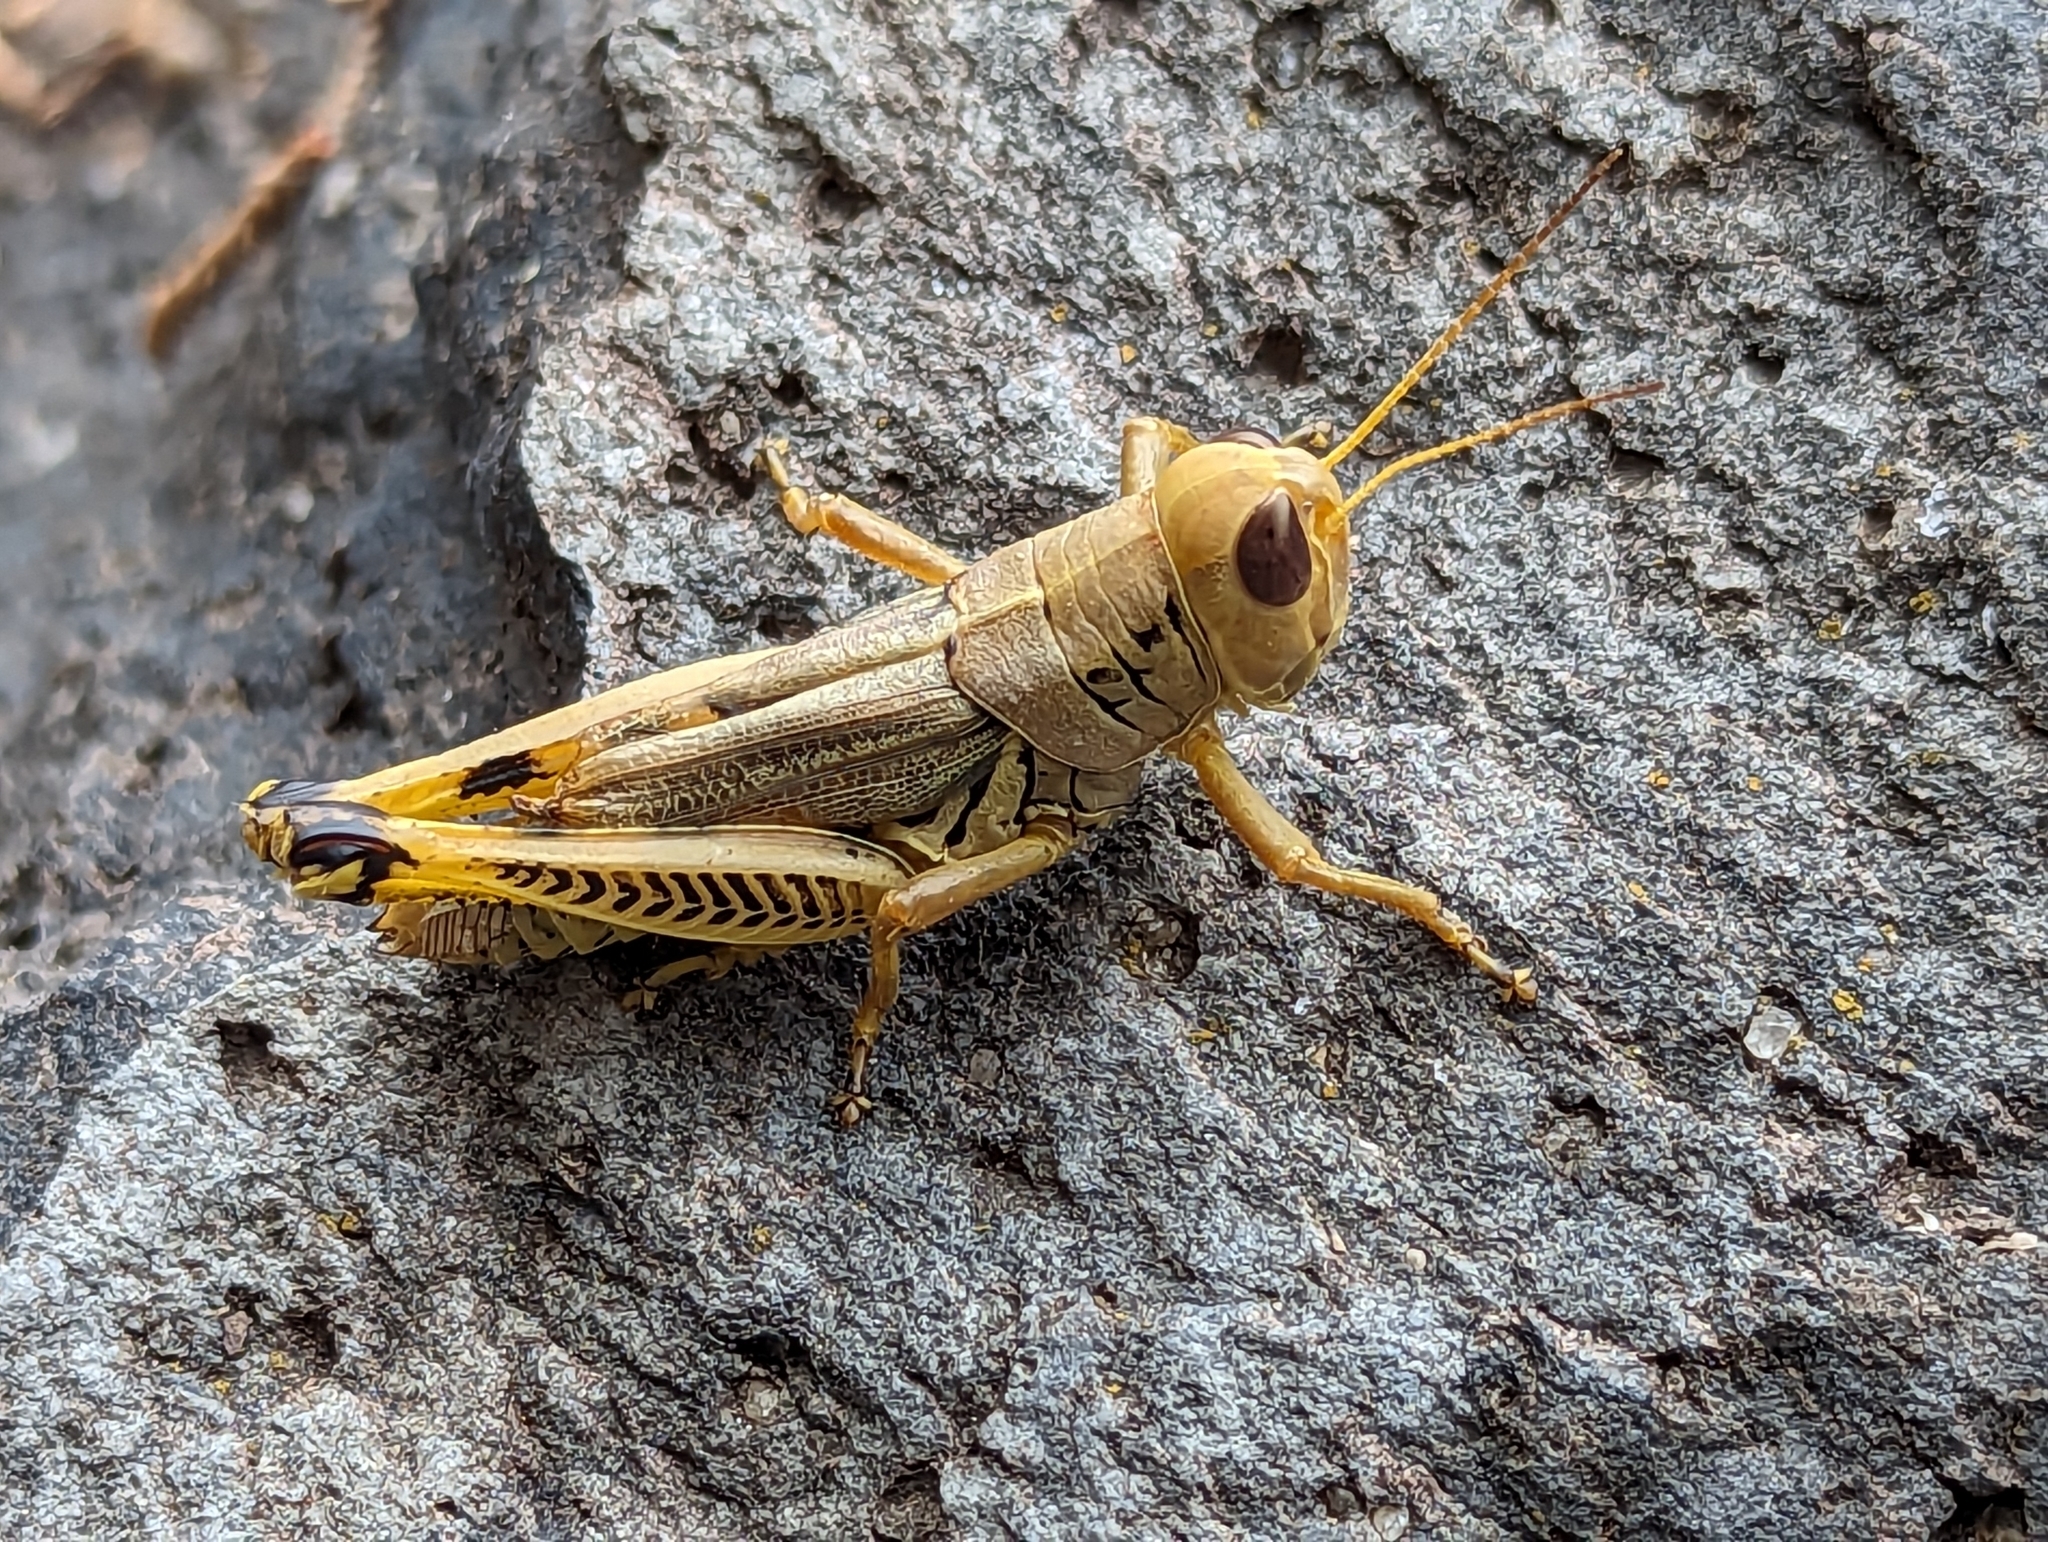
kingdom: Animalia
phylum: Arthropoda
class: Insecta
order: Orthoptera
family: Acrididae
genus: Melanoplus
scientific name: Melanoplus differentialis
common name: Differential grasshopper
